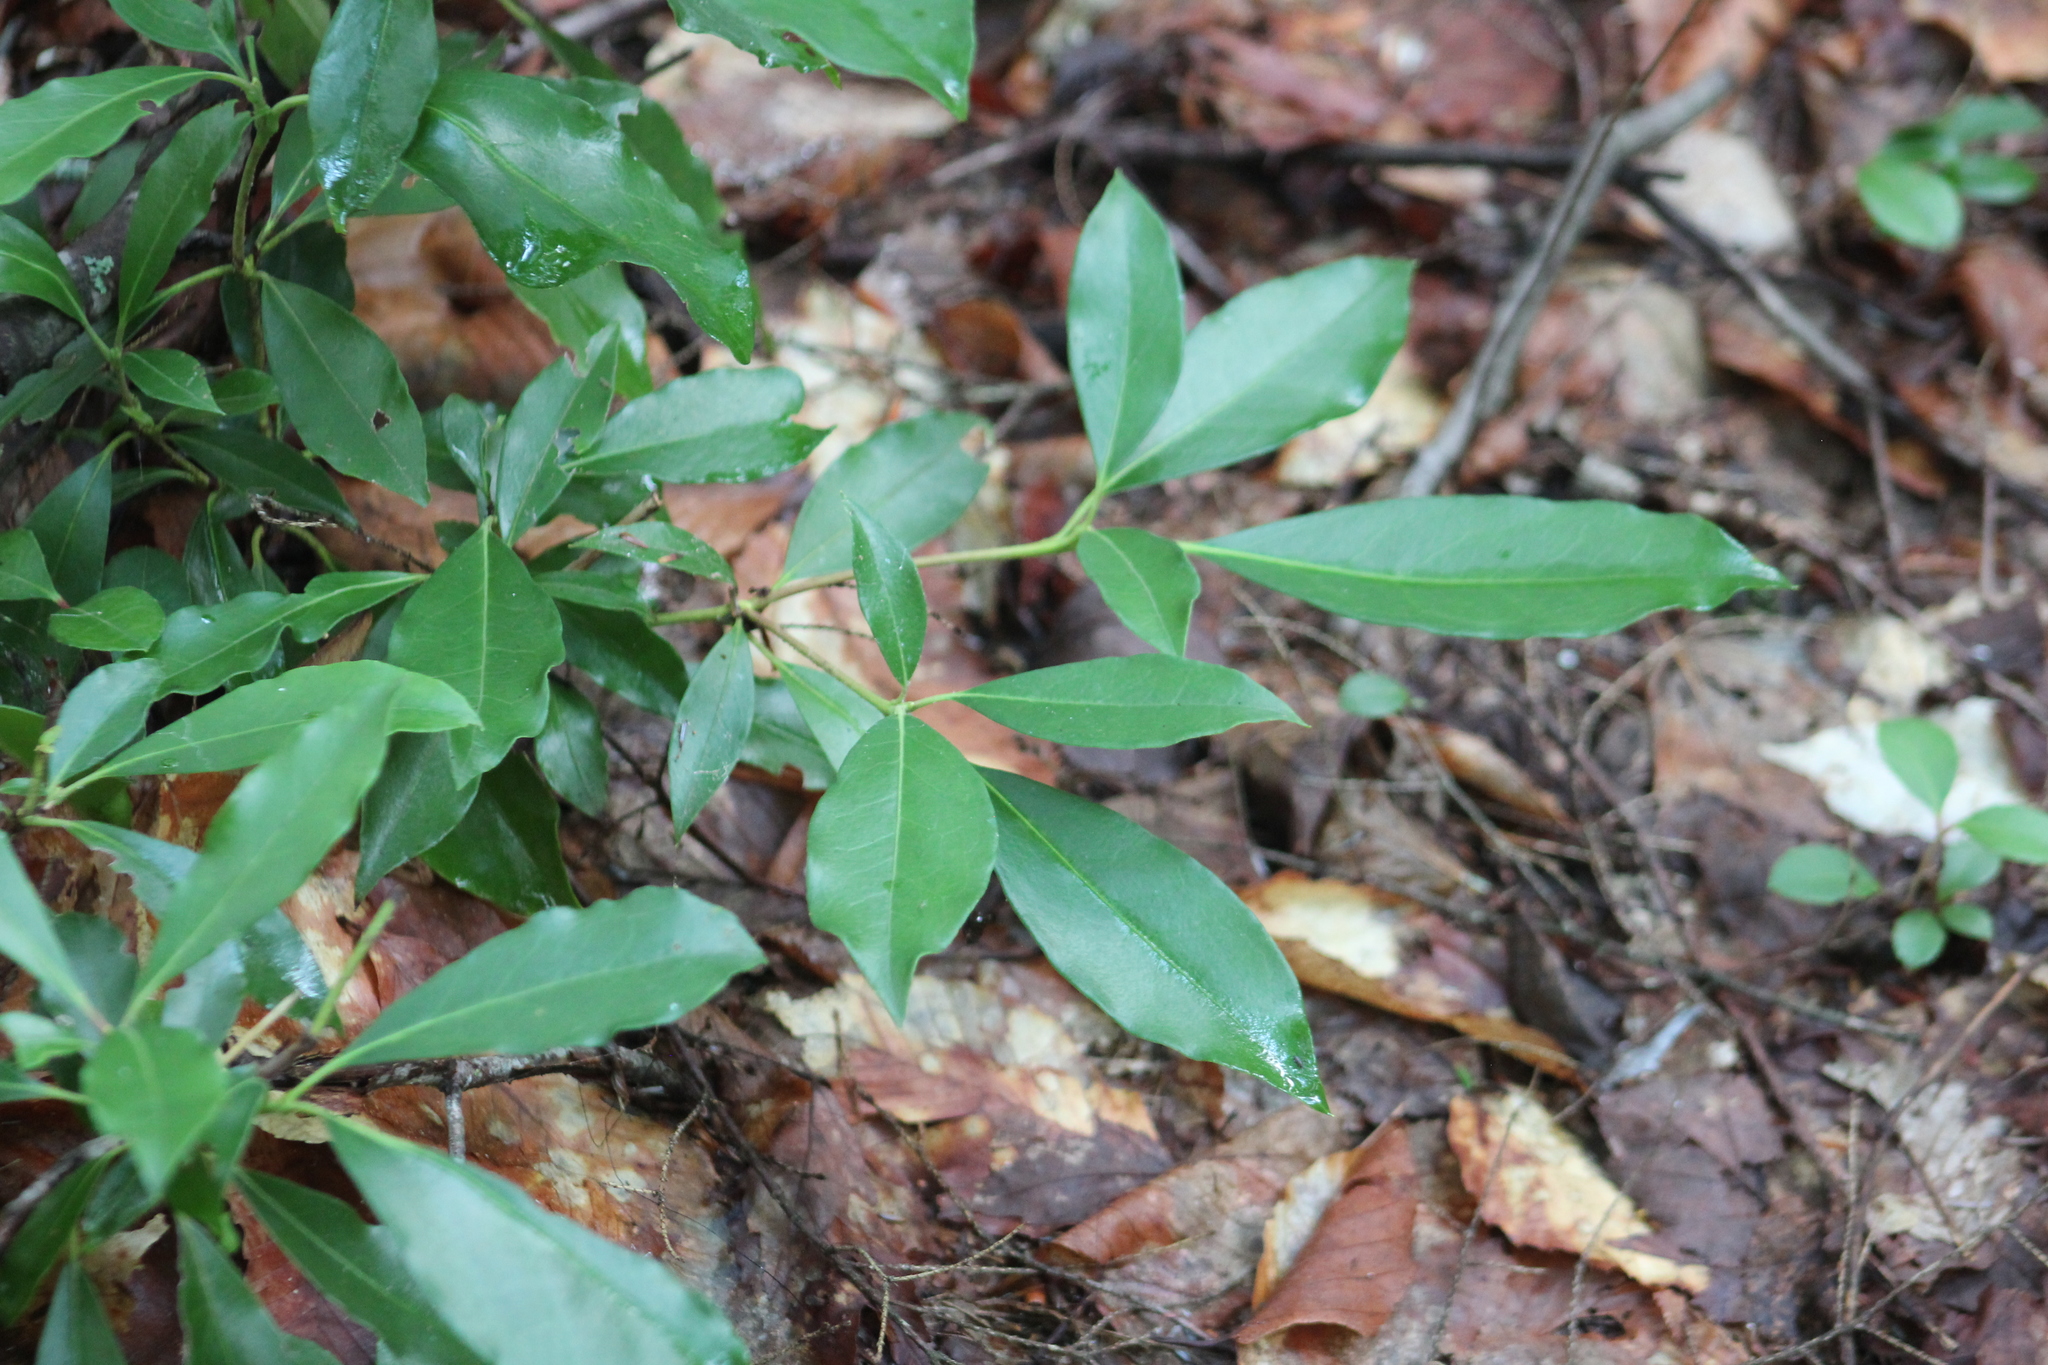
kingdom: Plantae
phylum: Tracheophyta
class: Magnoliopsida
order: Ericales
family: Ericaceae
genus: Kalmia
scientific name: Kalmia latifolia
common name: Mountain-laurel
